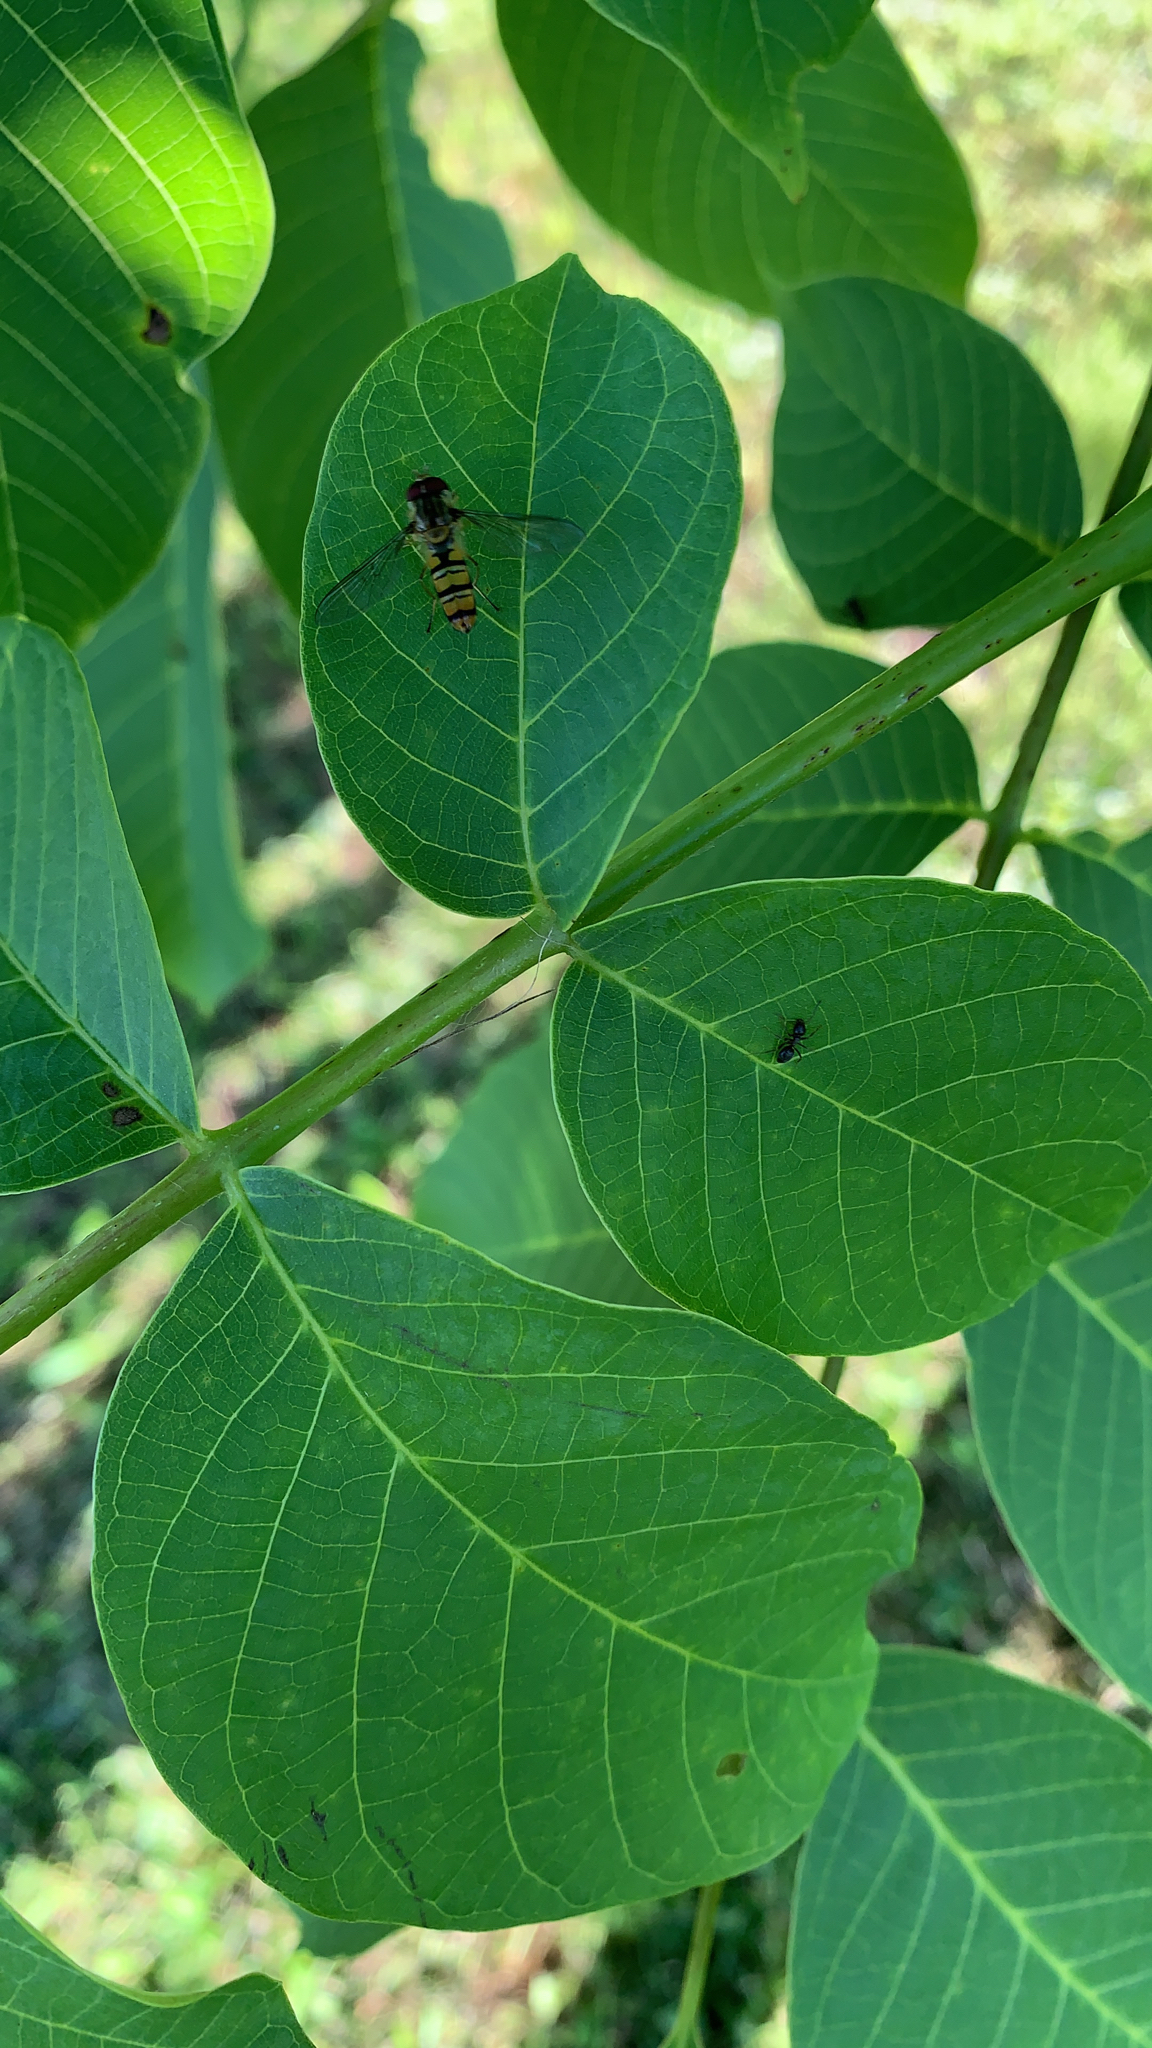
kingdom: Animalia
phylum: Arthropoda
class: Insecta
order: Diptera
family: Syrphidae
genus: Episyrphus
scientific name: Episyrphus balteatus
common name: Marmalade hoverfly
